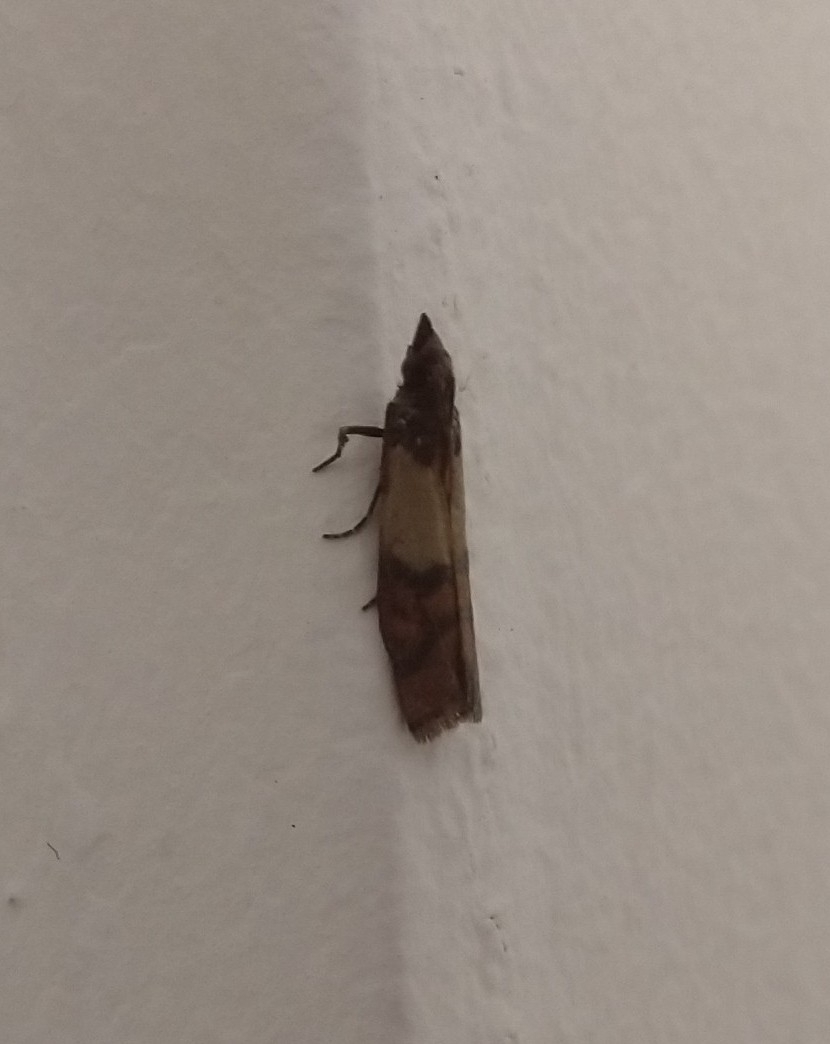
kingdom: Animalia
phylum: Arthropoda
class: Insecta
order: Lepidoptera
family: Pyralidae
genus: Plodia
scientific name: Plodia interpunctella
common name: Indian meal moth
